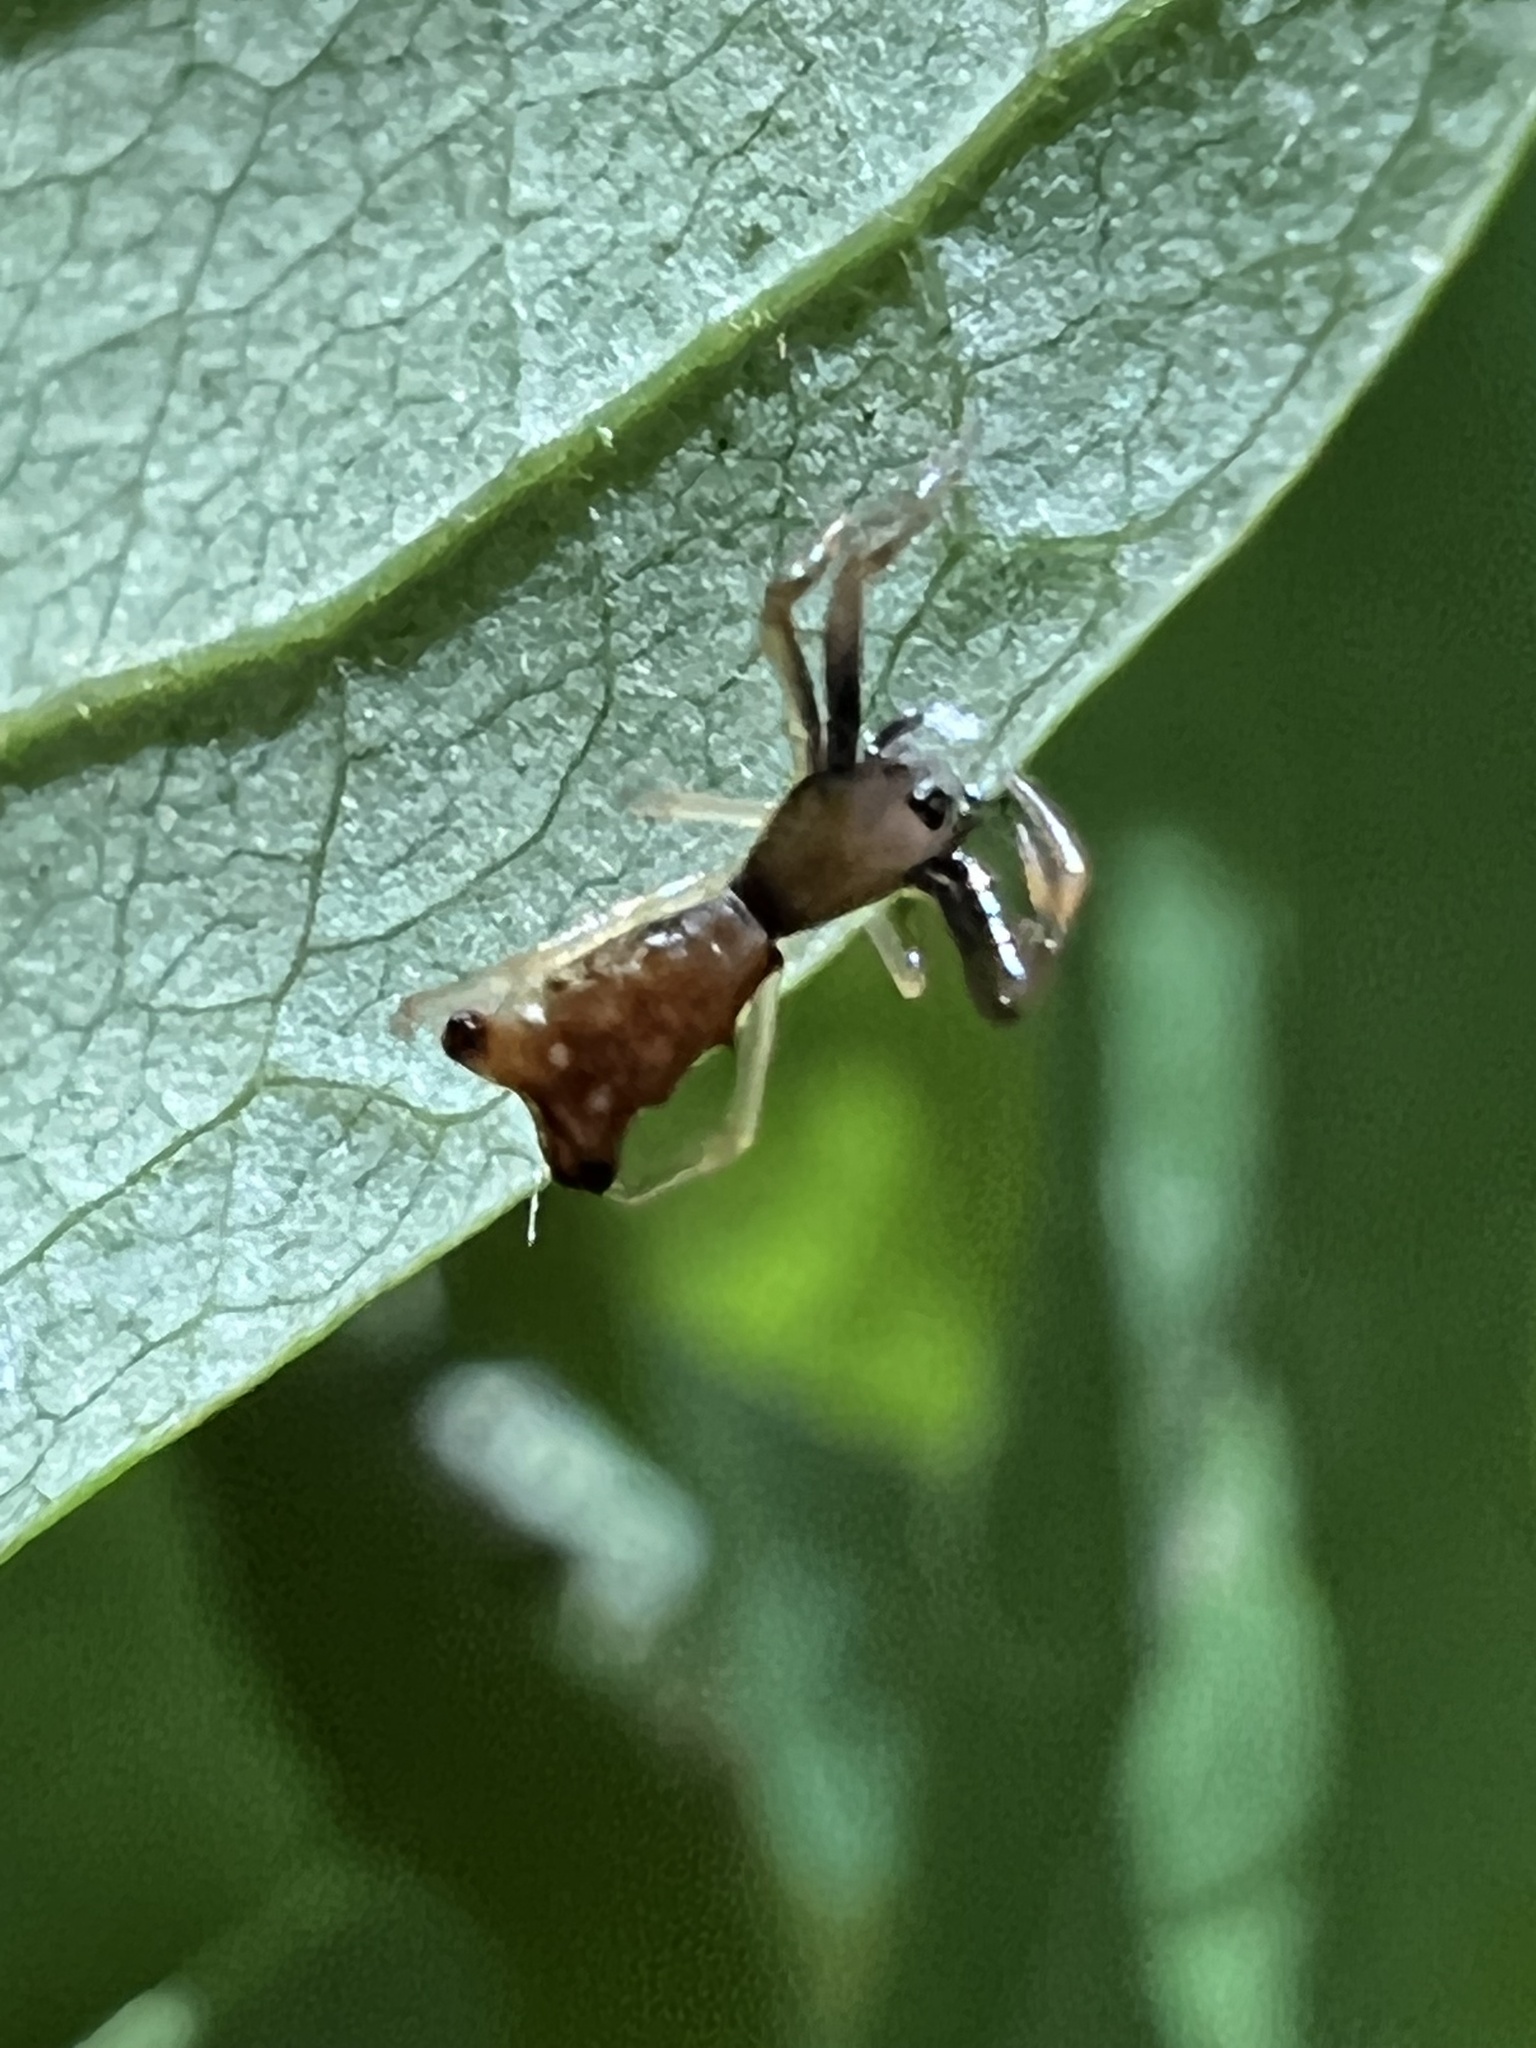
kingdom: Animalia
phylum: Arthropoda
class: Arachnida
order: Araneae
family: Araneidae
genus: Micrathena
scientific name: Micrathena sagittata
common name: Orb weavers
